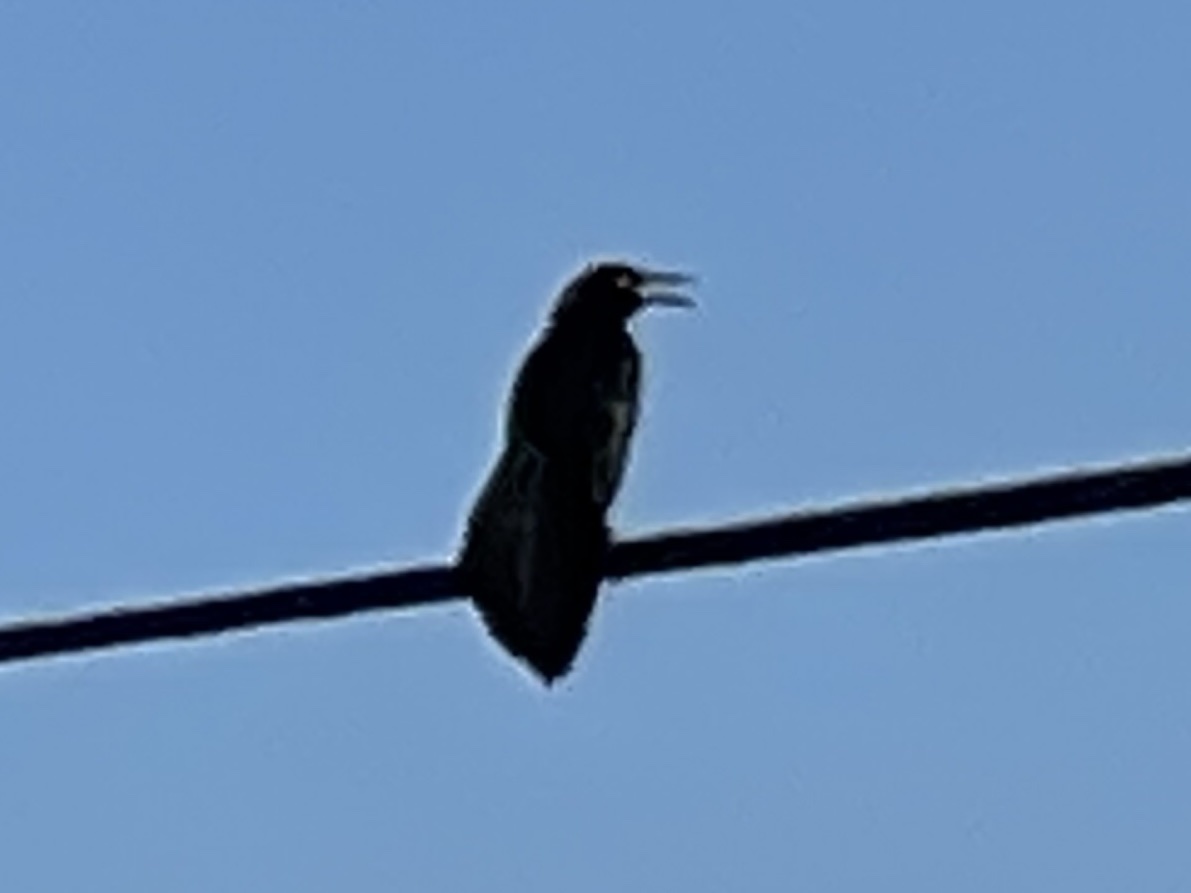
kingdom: Animalia
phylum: Chordata
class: Aves
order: Passeriformes
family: Icteridae
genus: Quiscalus
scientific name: Quiscalus mexicanus
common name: Great-tailed grackle
